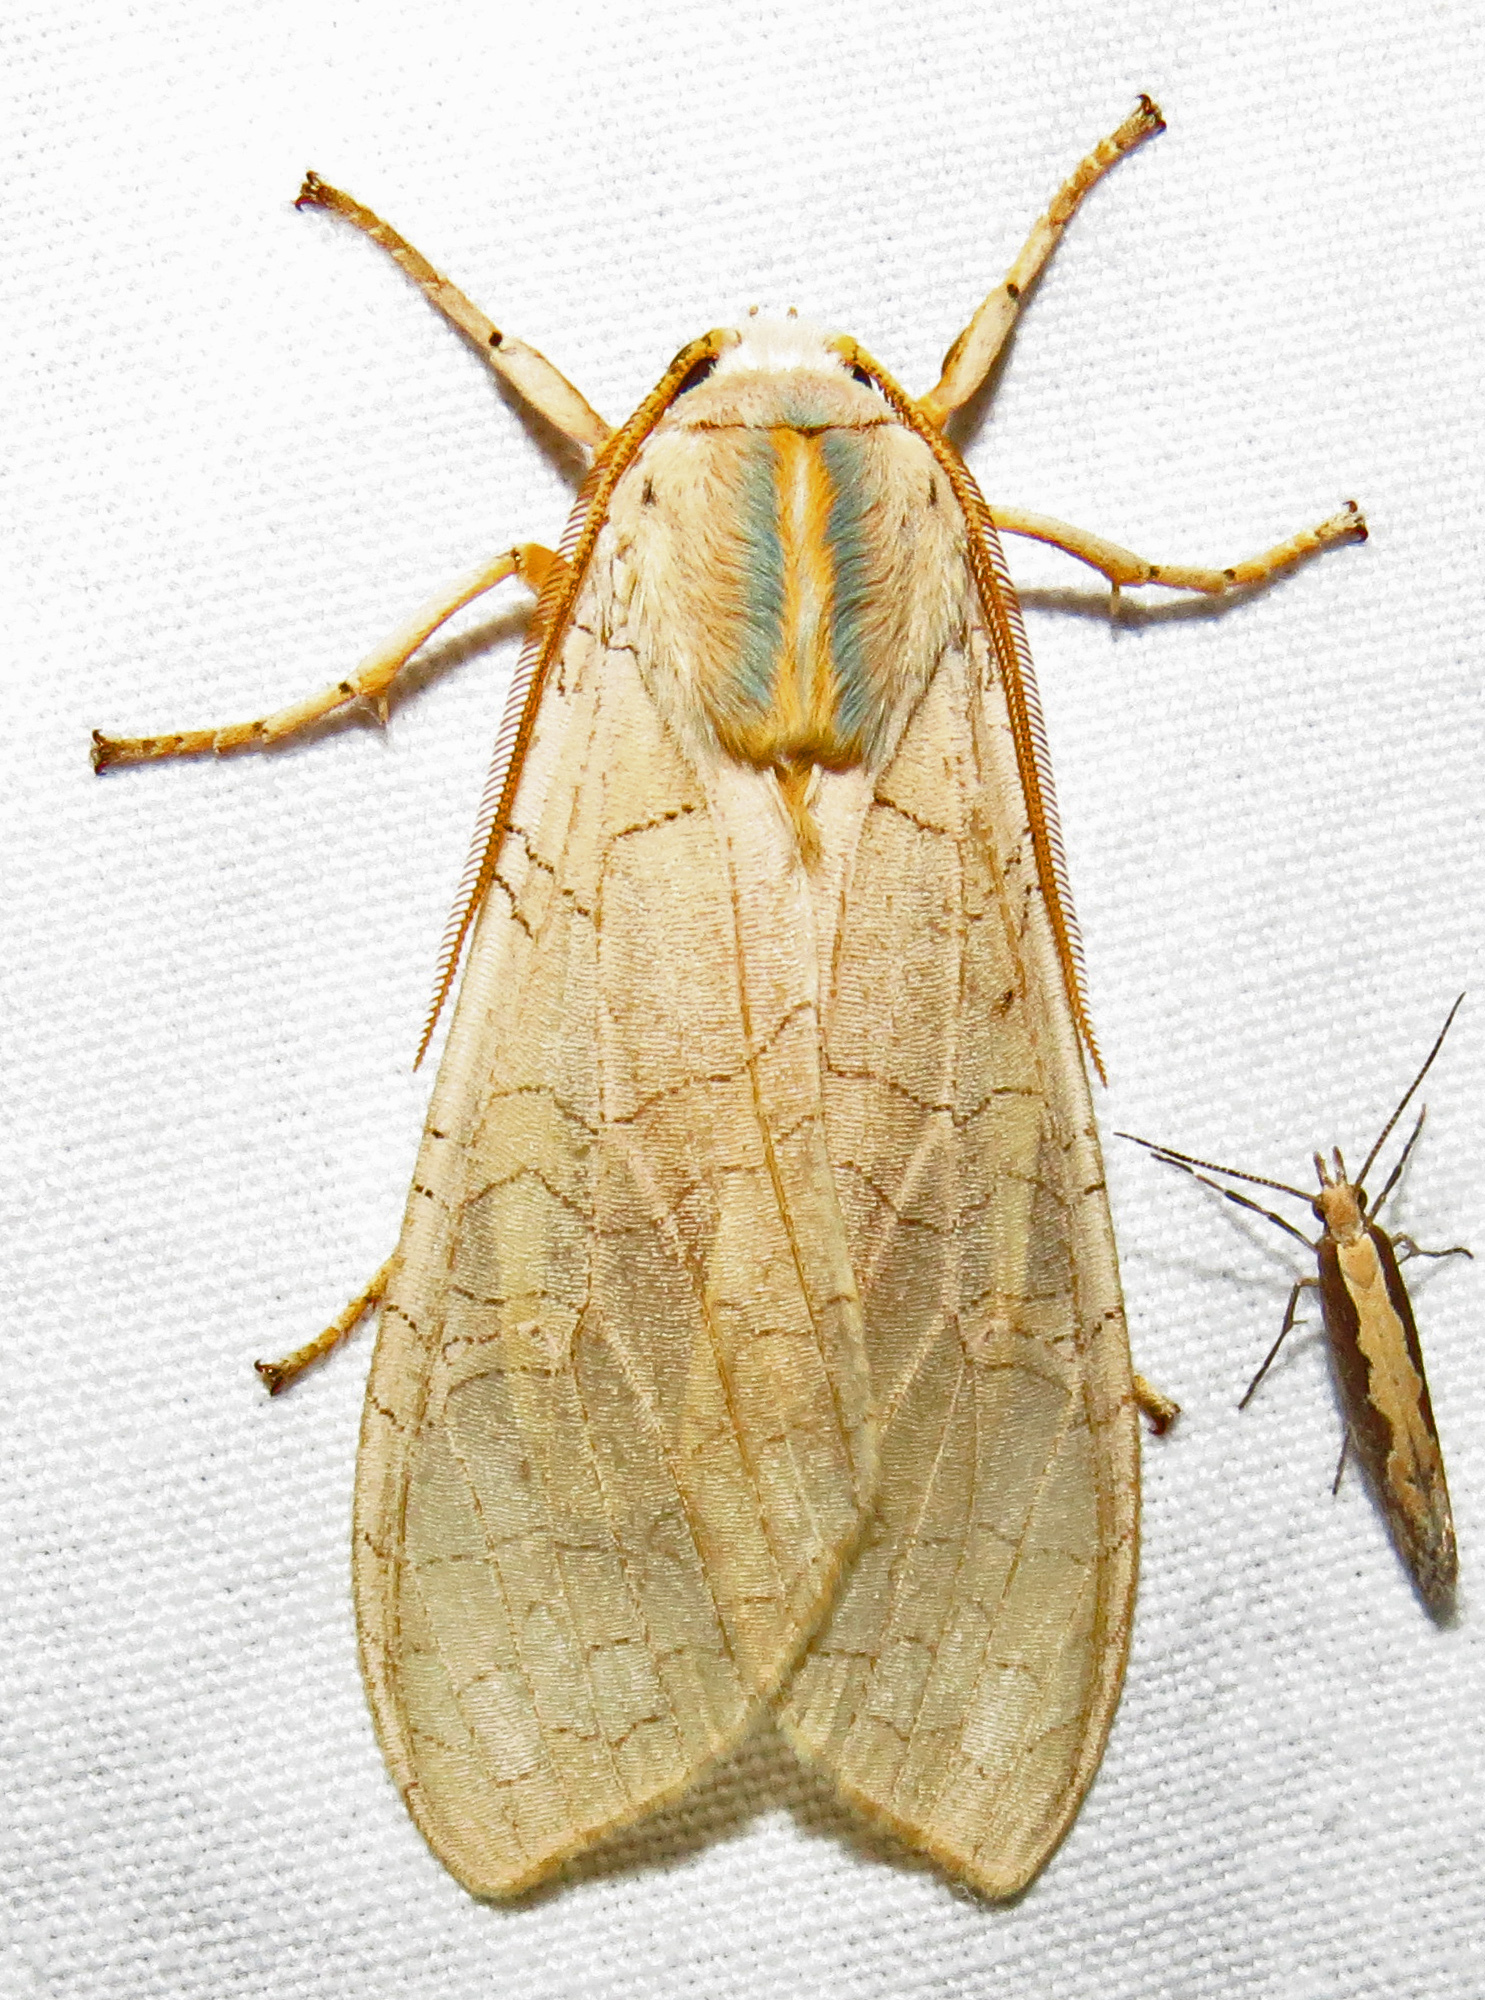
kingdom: Animalia
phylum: Arthropoda
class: Insecta
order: Lepidoptera
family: Erebidae
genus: Halysidota
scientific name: Halysidota
